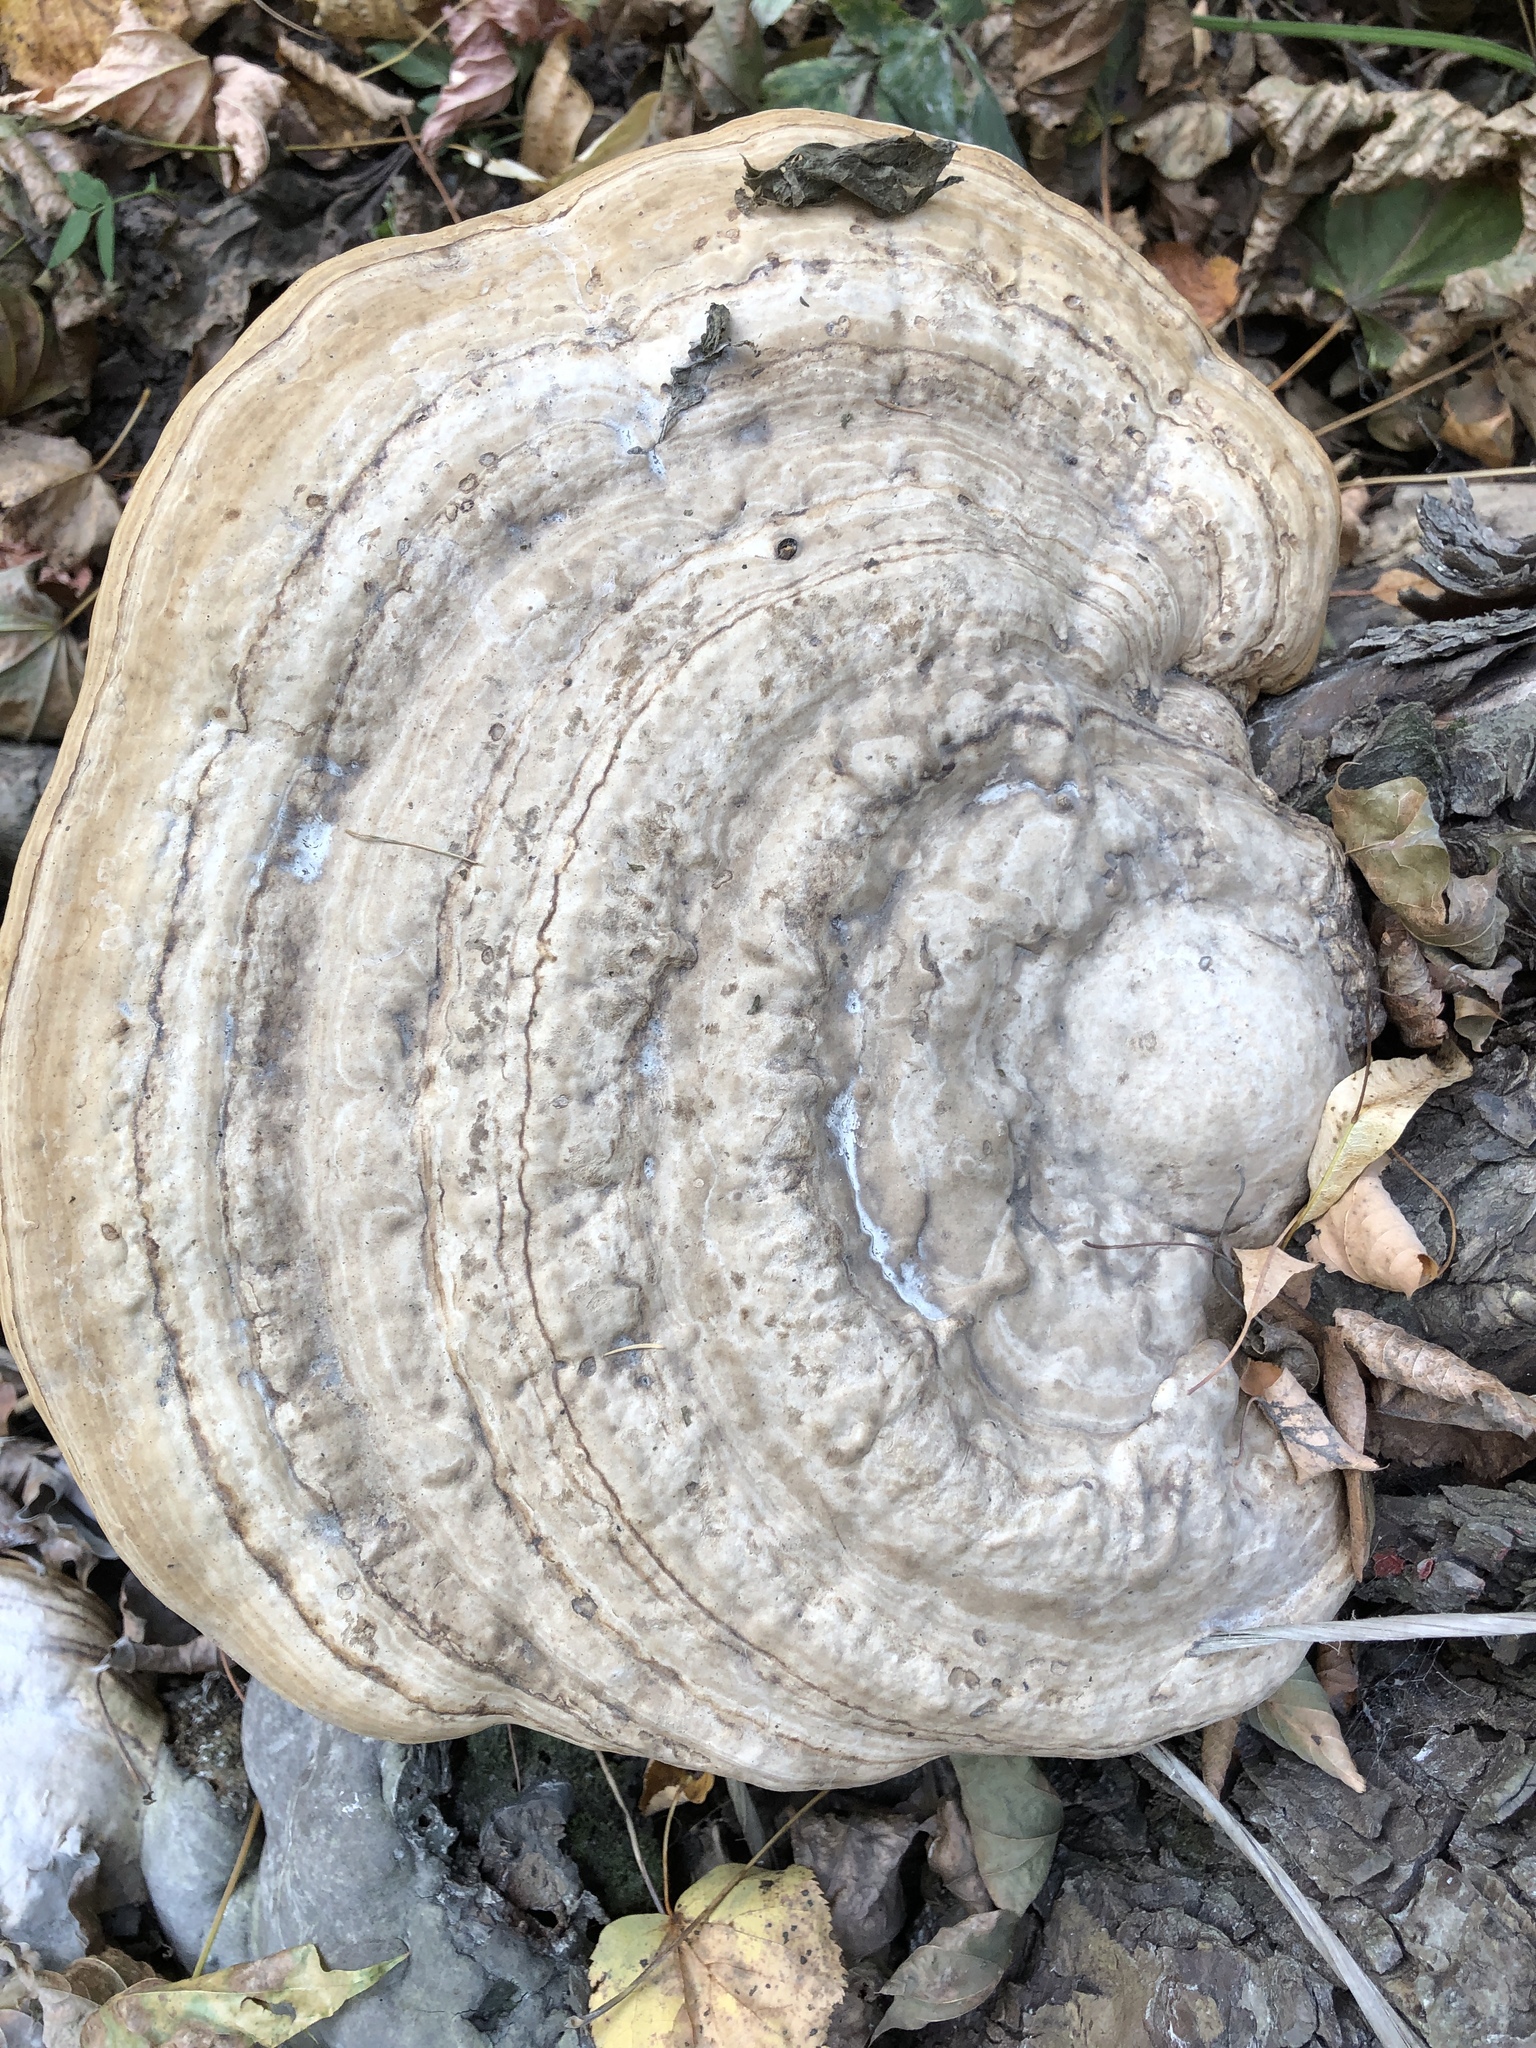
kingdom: Fungi
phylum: Basidiomycota
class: Agaricomycetes
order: Polyporales
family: Polyporaceae
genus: Fomes
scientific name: Fomes fomentarius
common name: Hoof fungus
